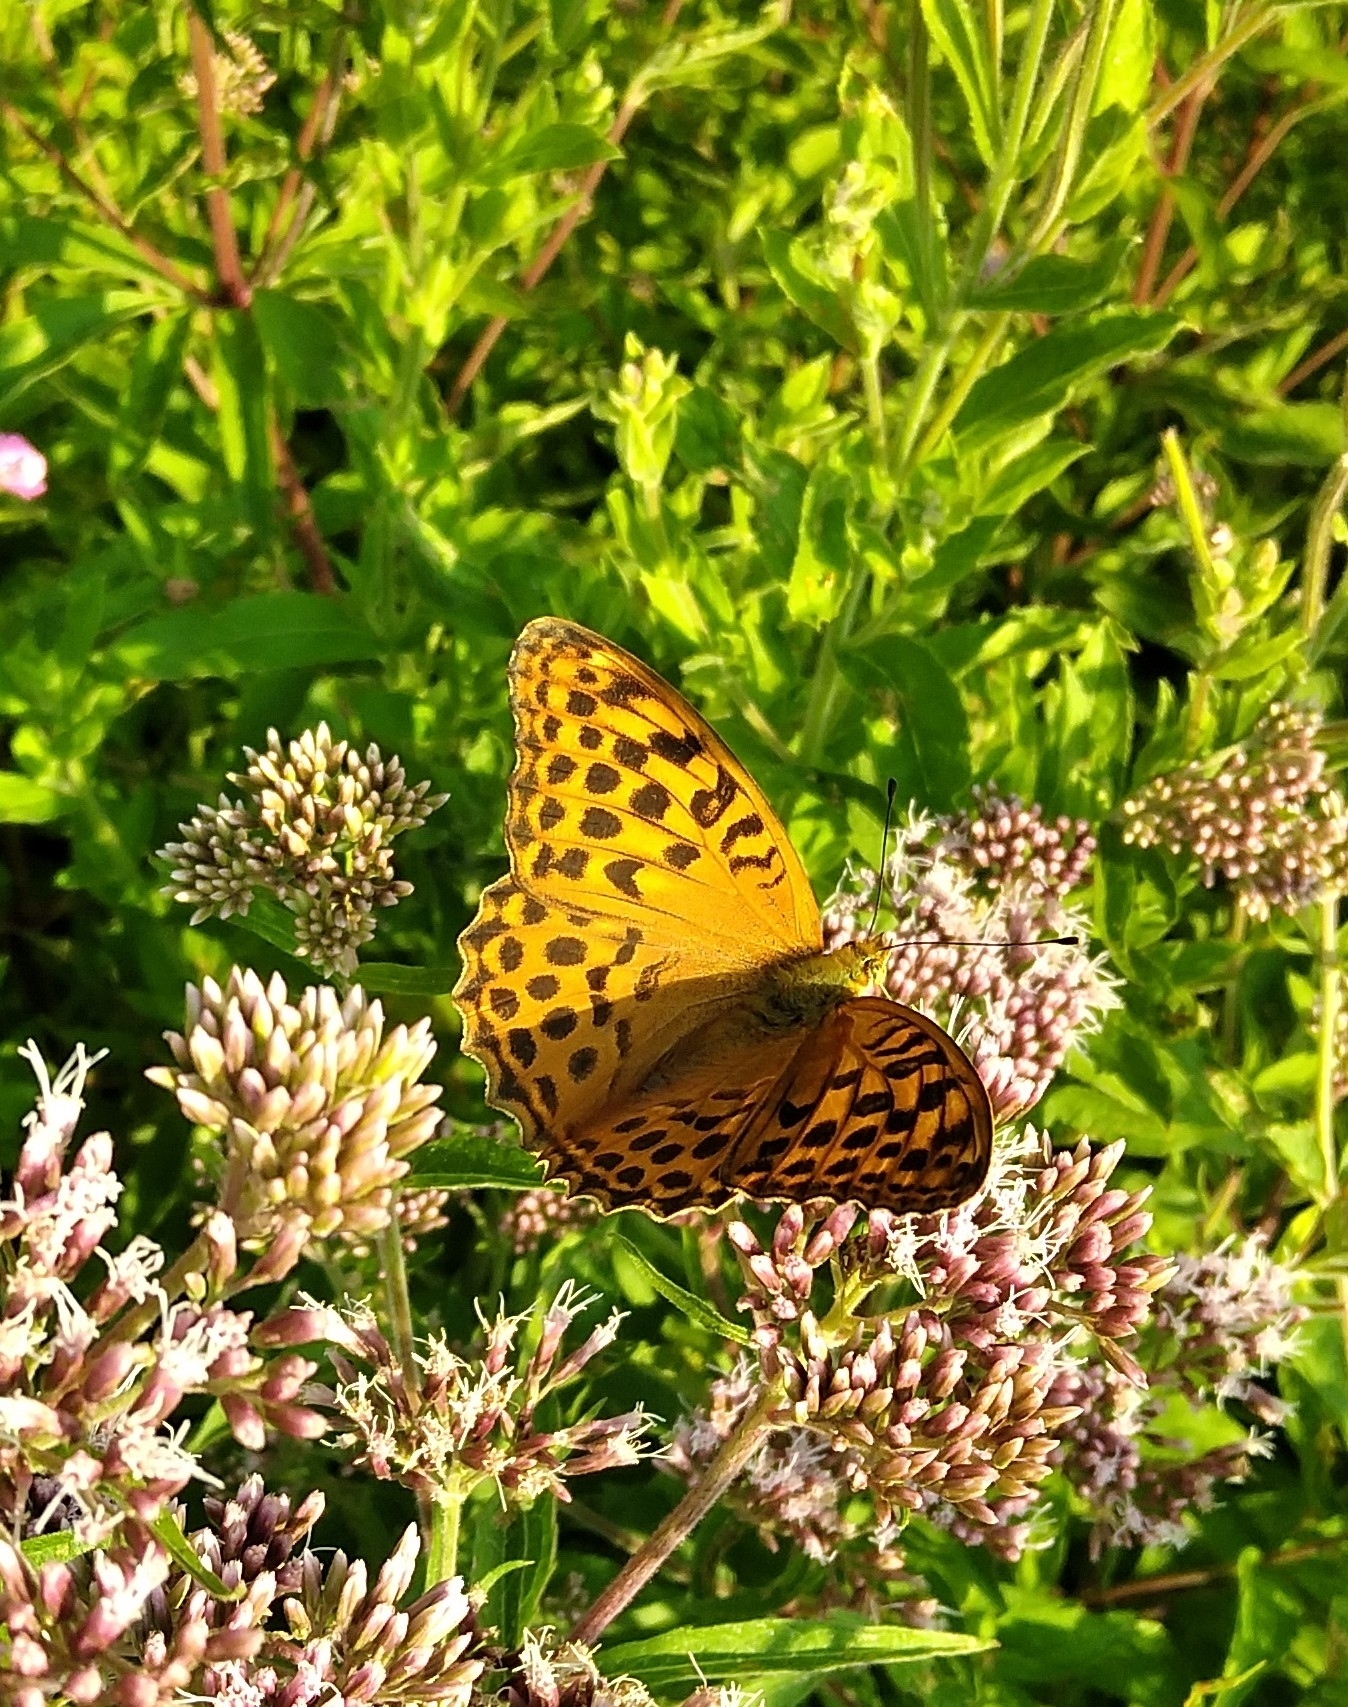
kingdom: Animalia
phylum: Arthropoda
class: Insecta
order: Lepidoptera
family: Nymphalidae
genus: Argynnis
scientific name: Argynnis paphia
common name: Silver-washed fritillary
